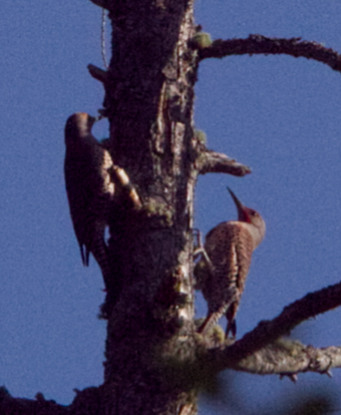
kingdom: Animalia
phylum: Chordata
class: Aves
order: Piciformes
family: Picidae
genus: Colaptes
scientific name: Colaptes auratus
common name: Northern flicker
